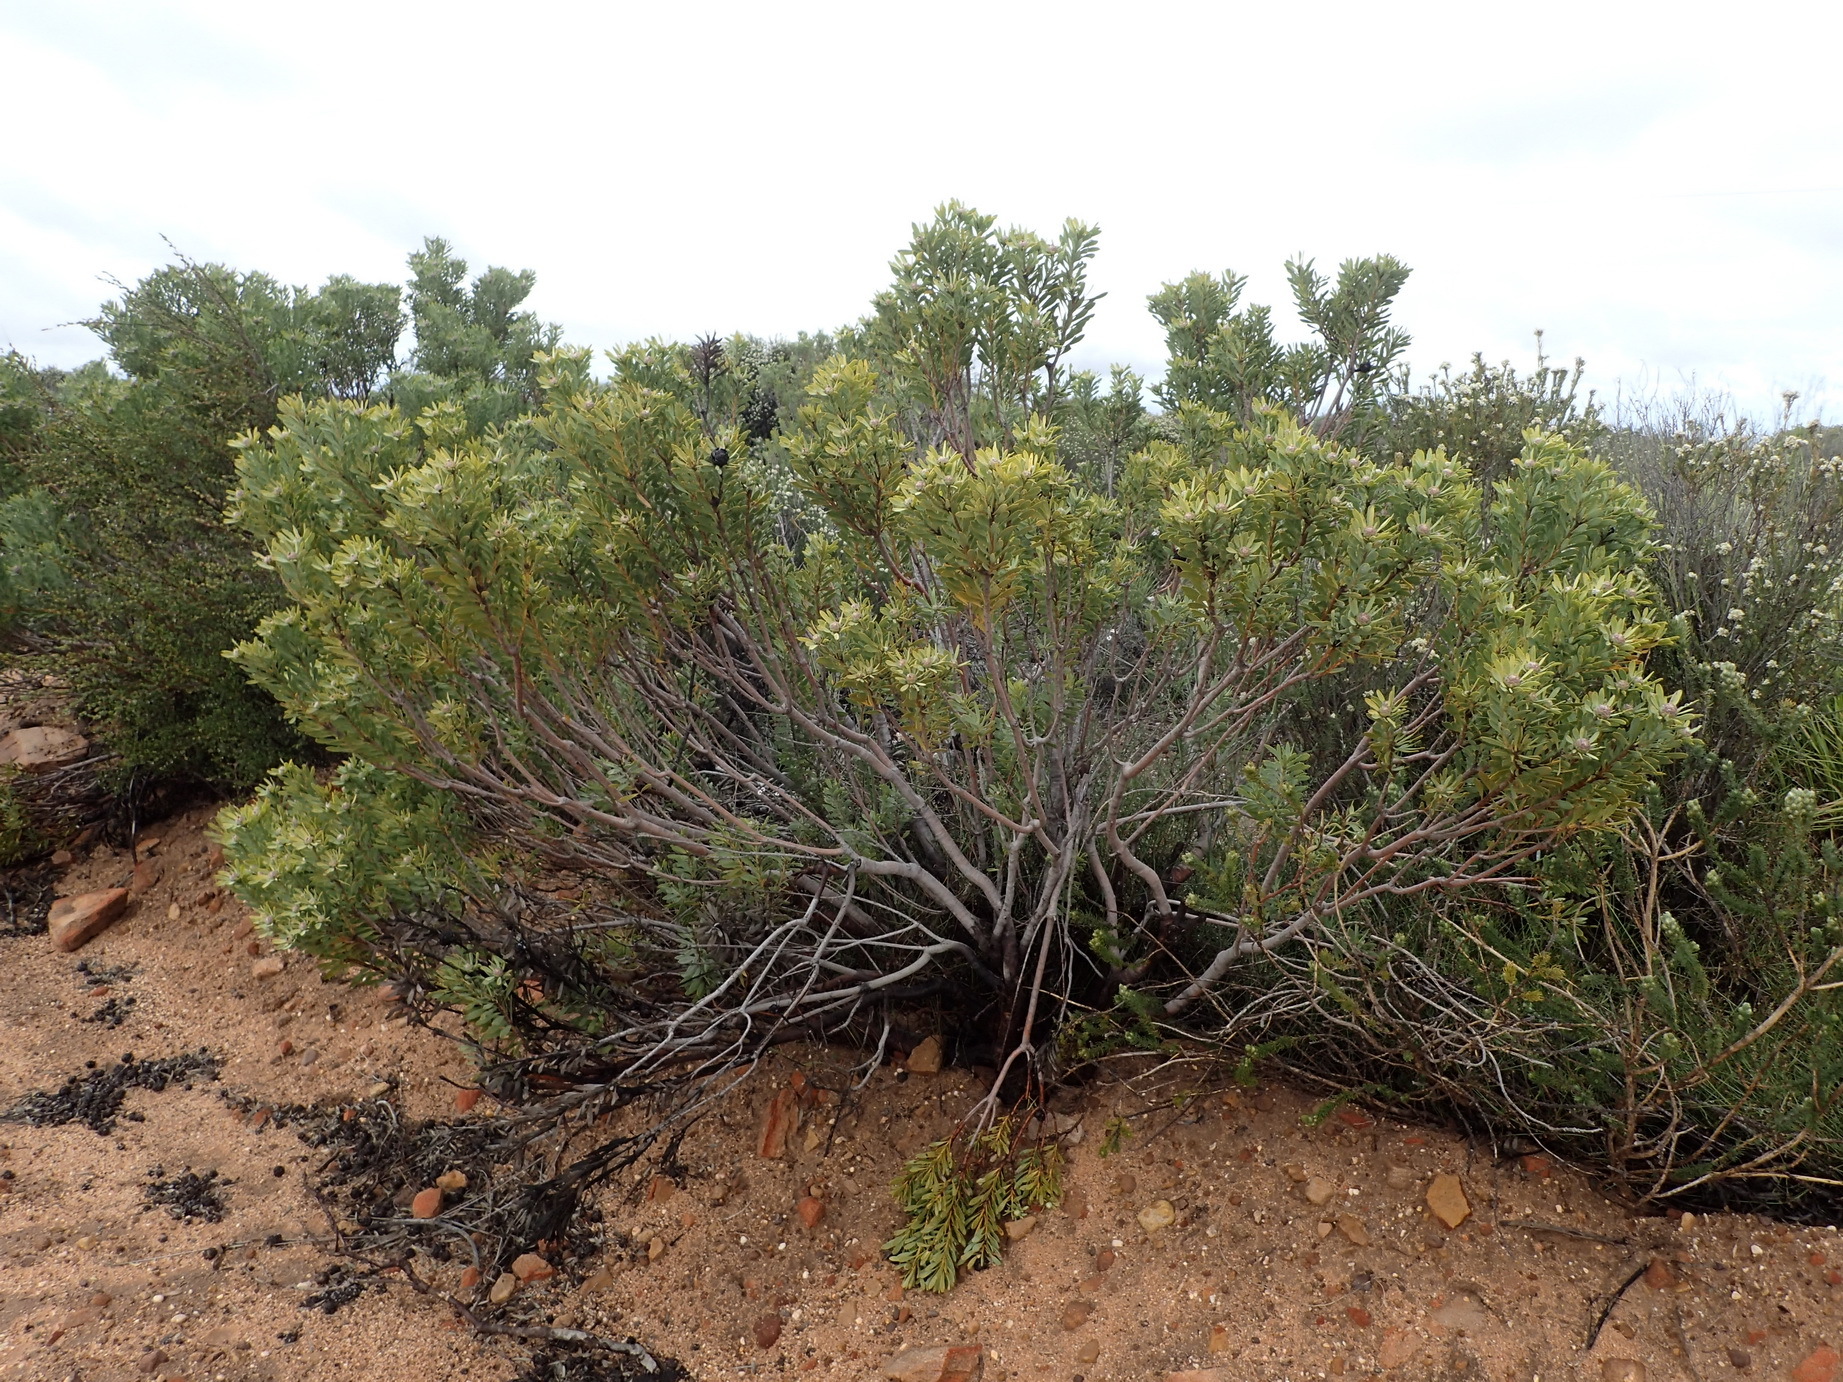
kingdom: Plantae
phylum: Tracheophyta
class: Magnoliopsida
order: Proteales
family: Proteaceae
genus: Leucadendron
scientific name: Leucadendron pubescens
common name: Grey conebush
